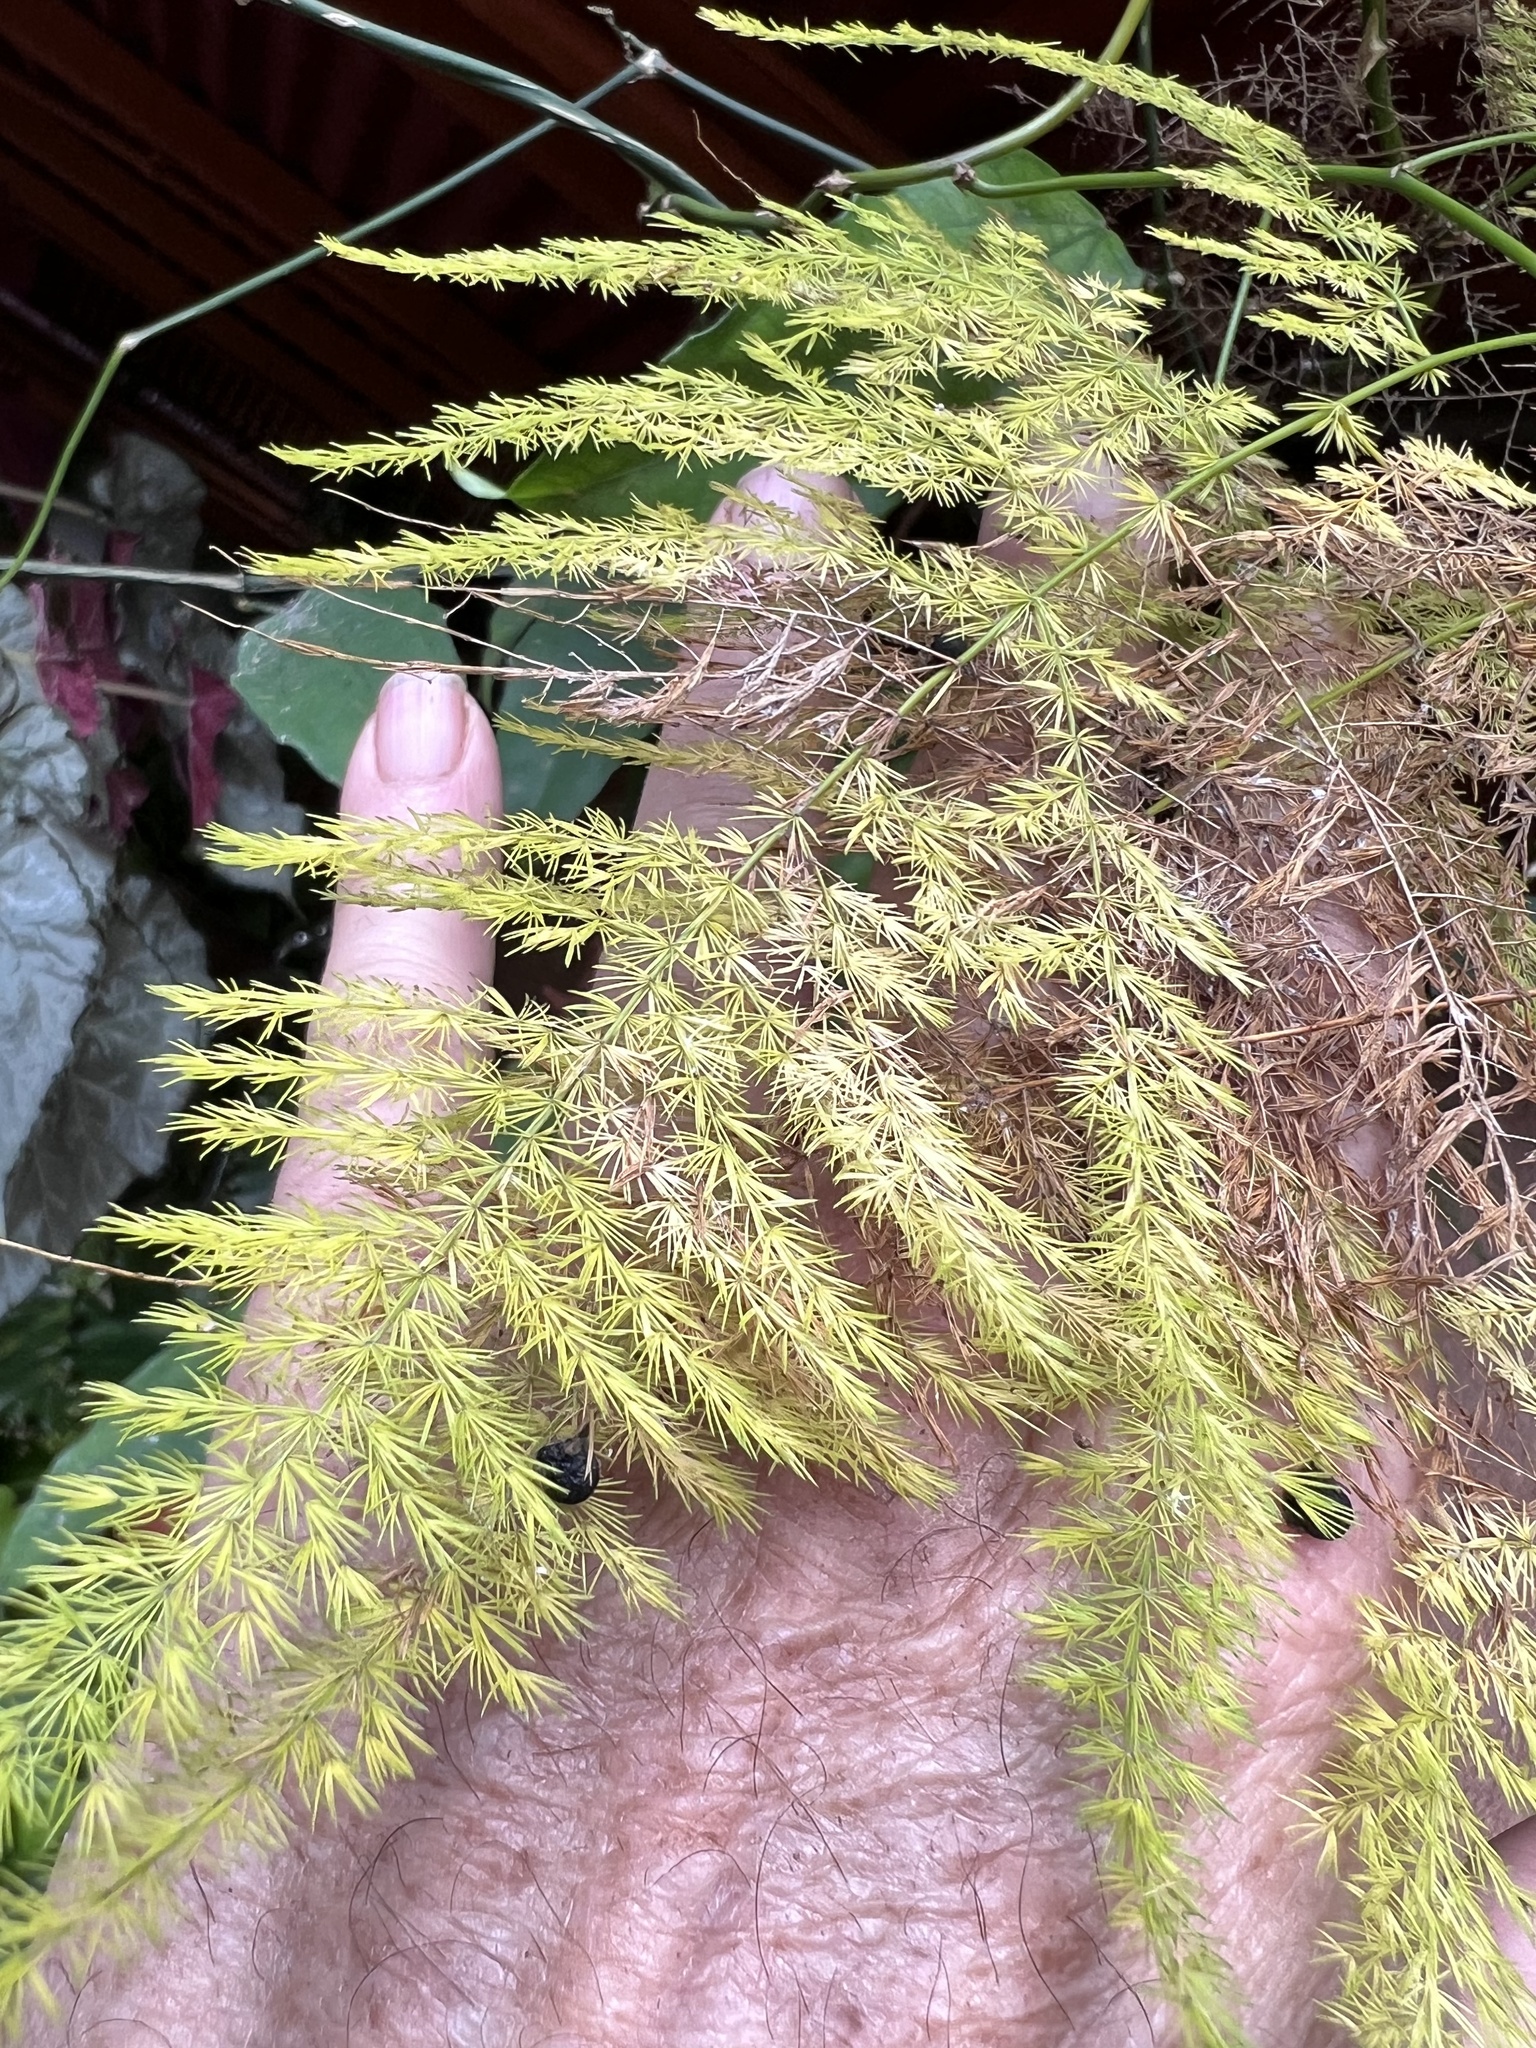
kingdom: Plantae
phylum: Tracheophyta
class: Liliopsida
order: Asparagales
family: Asparagaceae
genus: Asparagus
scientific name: Asparagus setaceus
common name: Common asparagus fern
